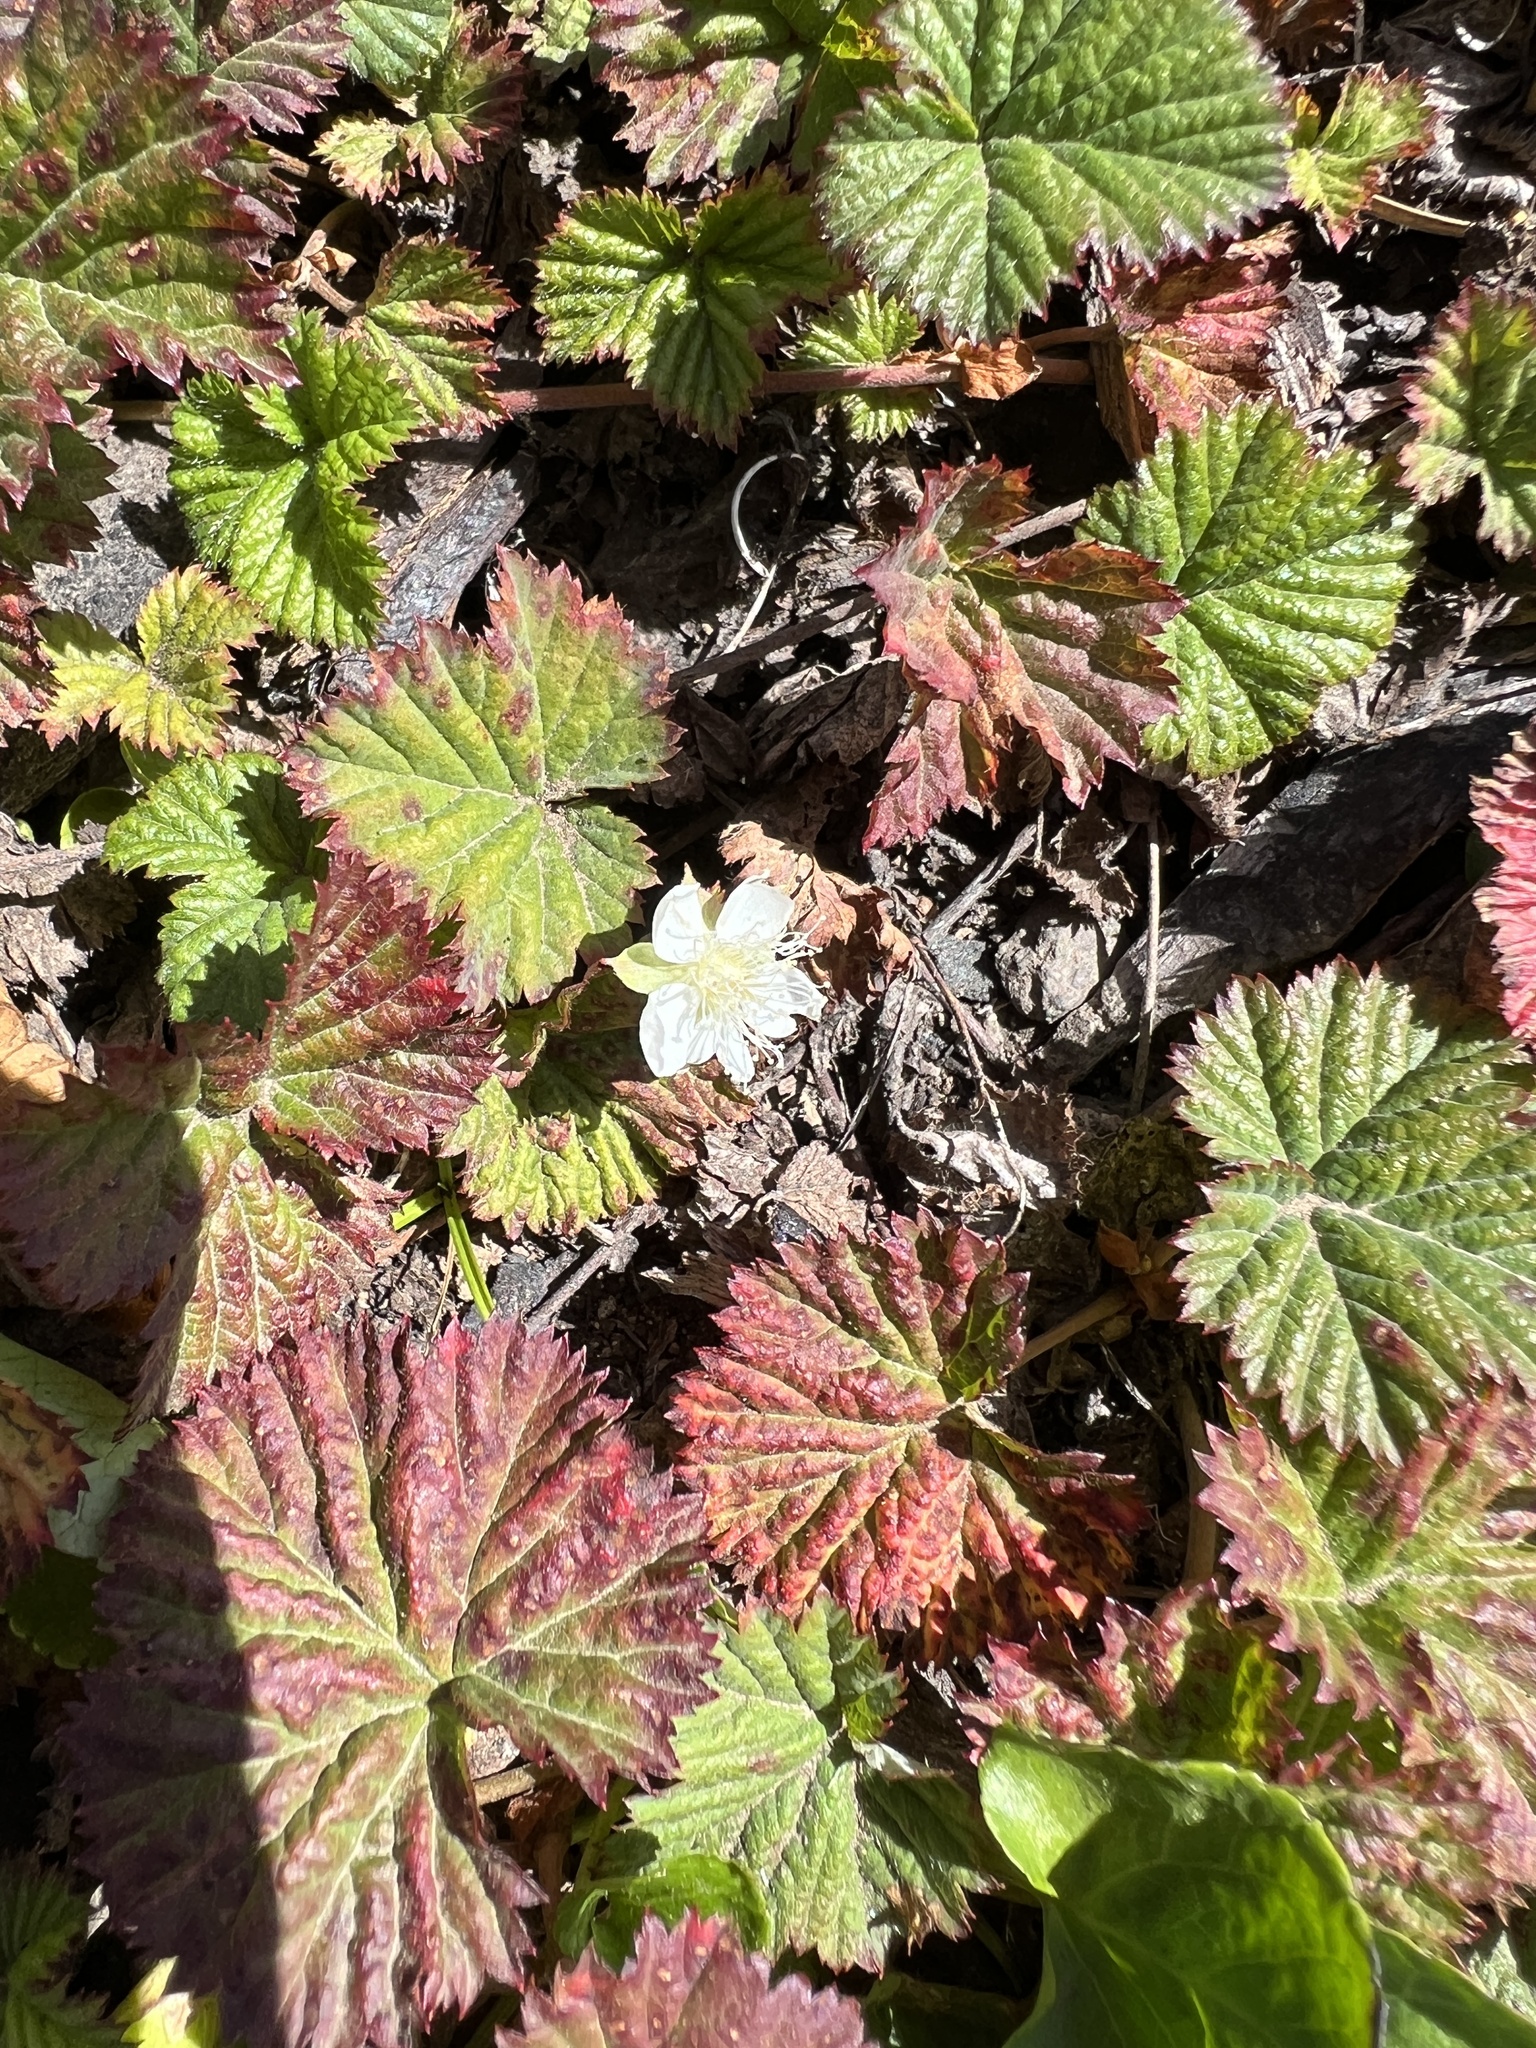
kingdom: Plantae
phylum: Tracheophyta
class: Magnoliopsida
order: Rosales
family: Rosaceae
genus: Rubus
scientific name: Rubus lasiococcus
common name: Dwarf bramble
